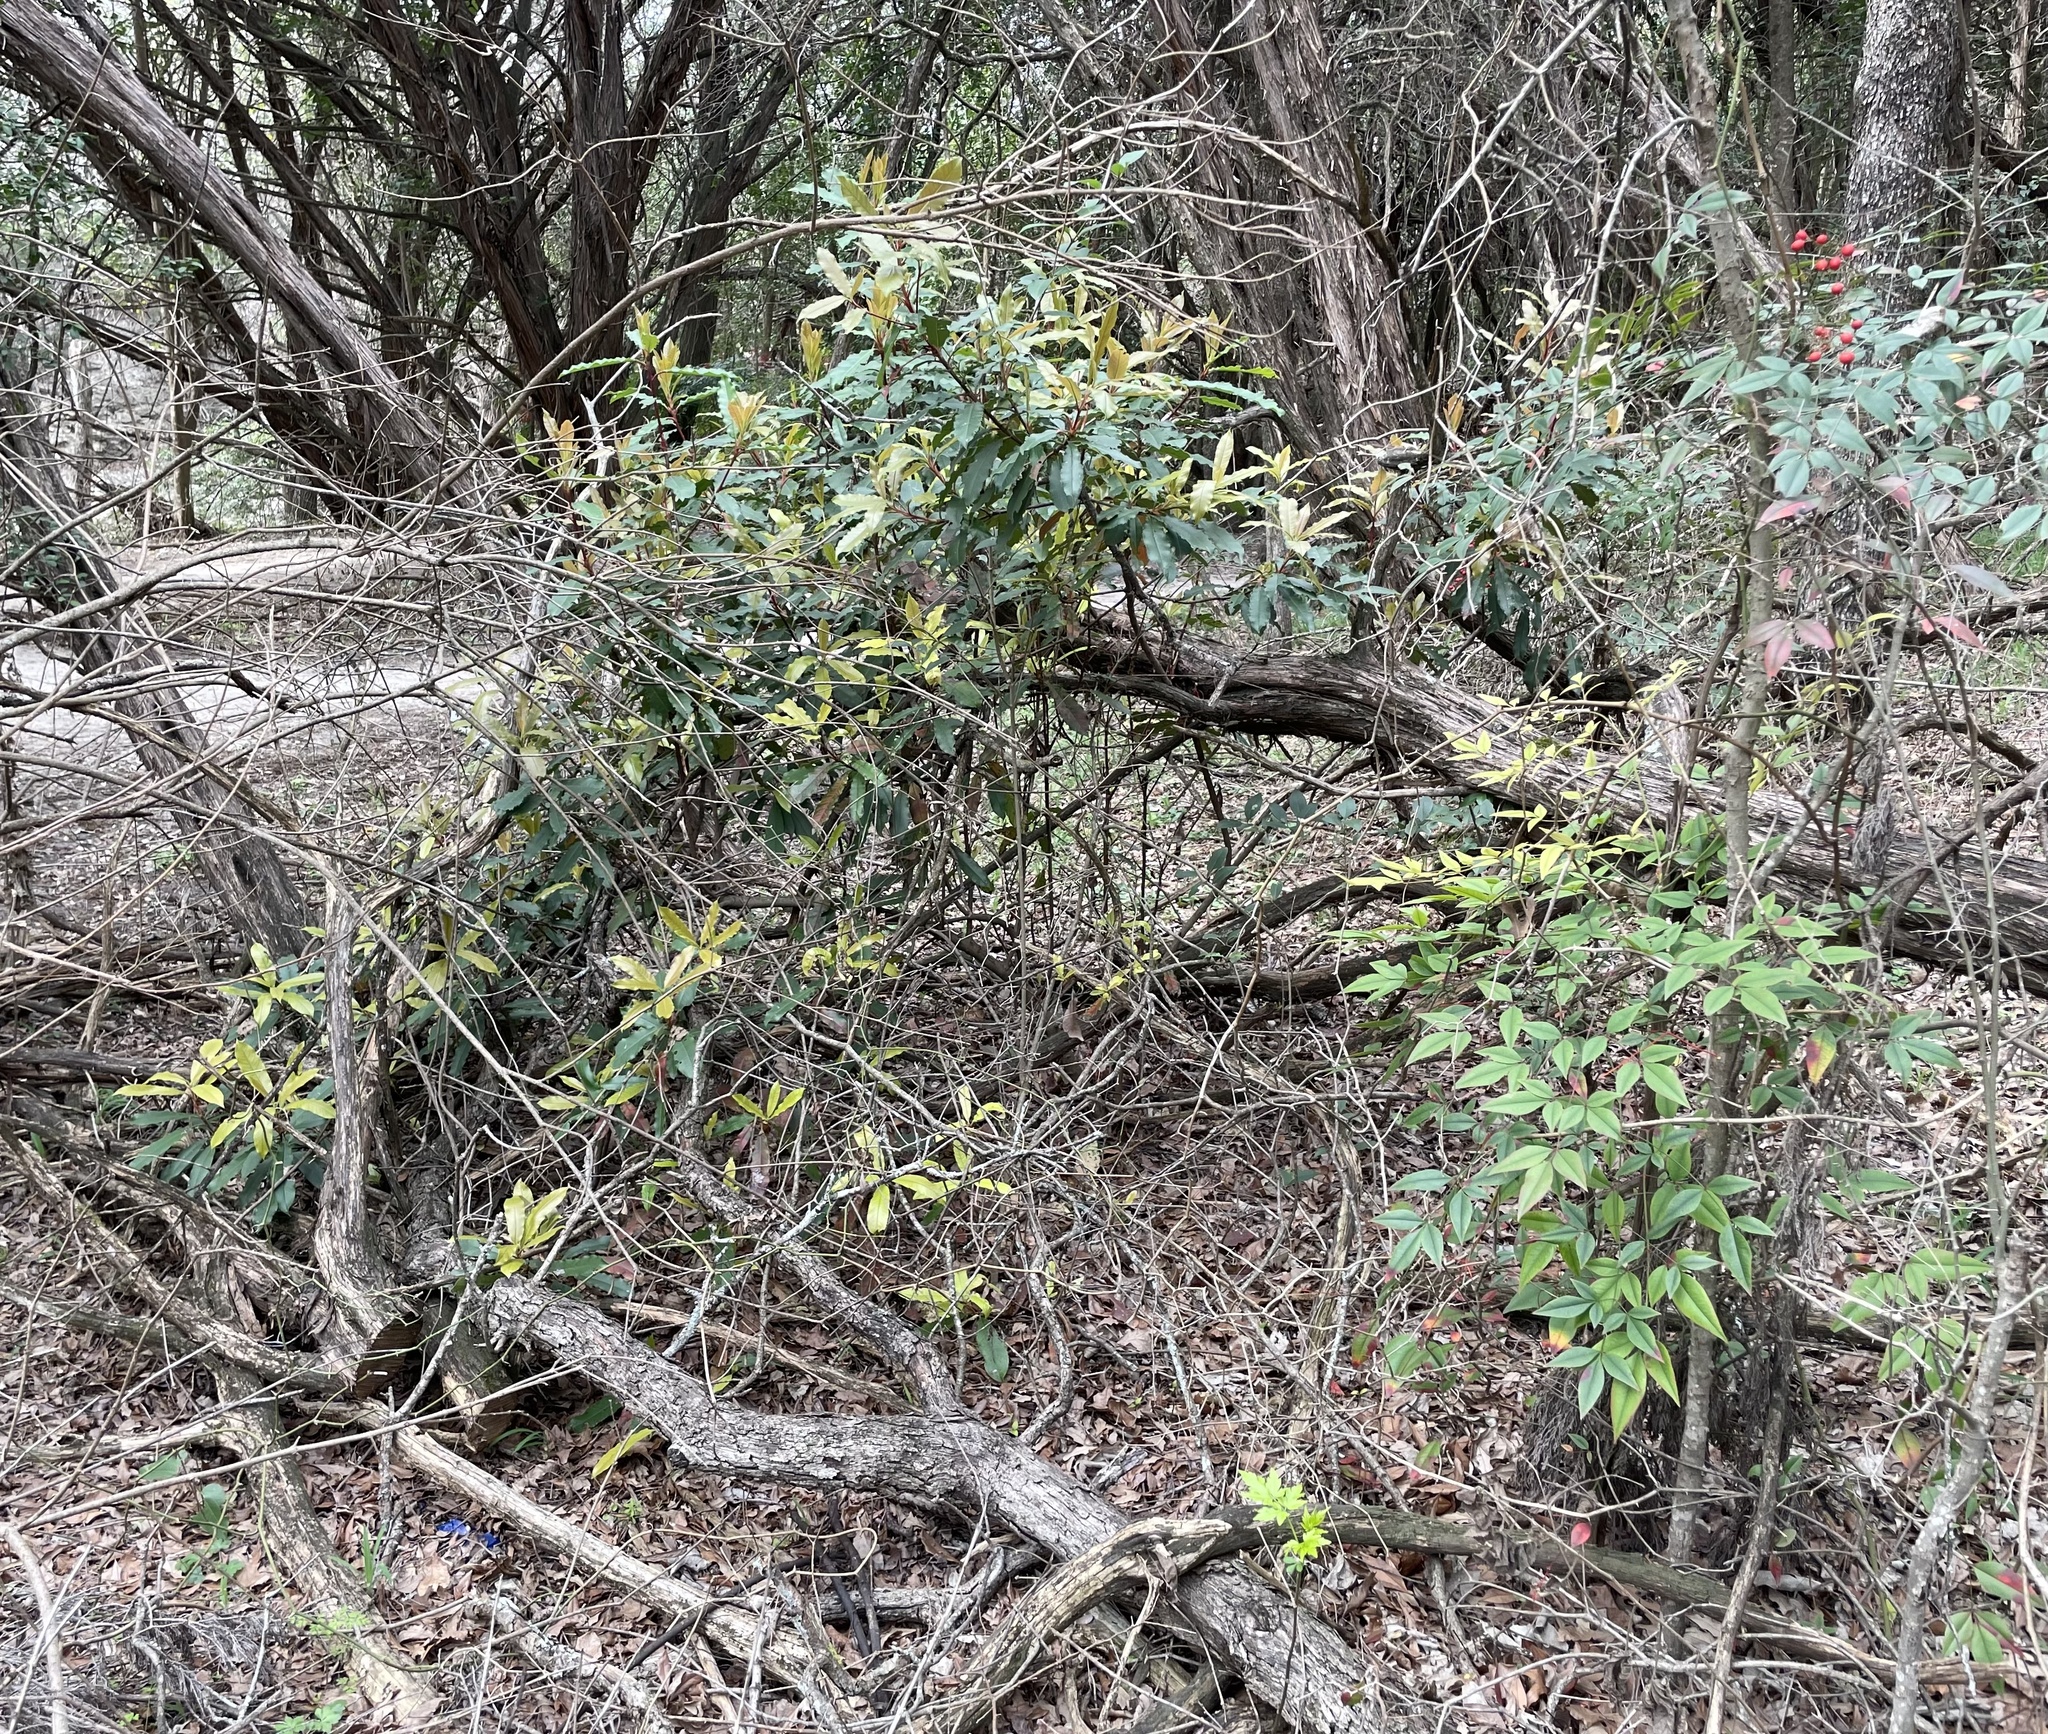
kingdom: Plantae
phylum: Tracheophyta
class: Magnoliopsida
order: Rosales
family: Rosaceae
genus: Photinia
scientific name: Photinia serratifolia
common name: Taiwanese photinia
